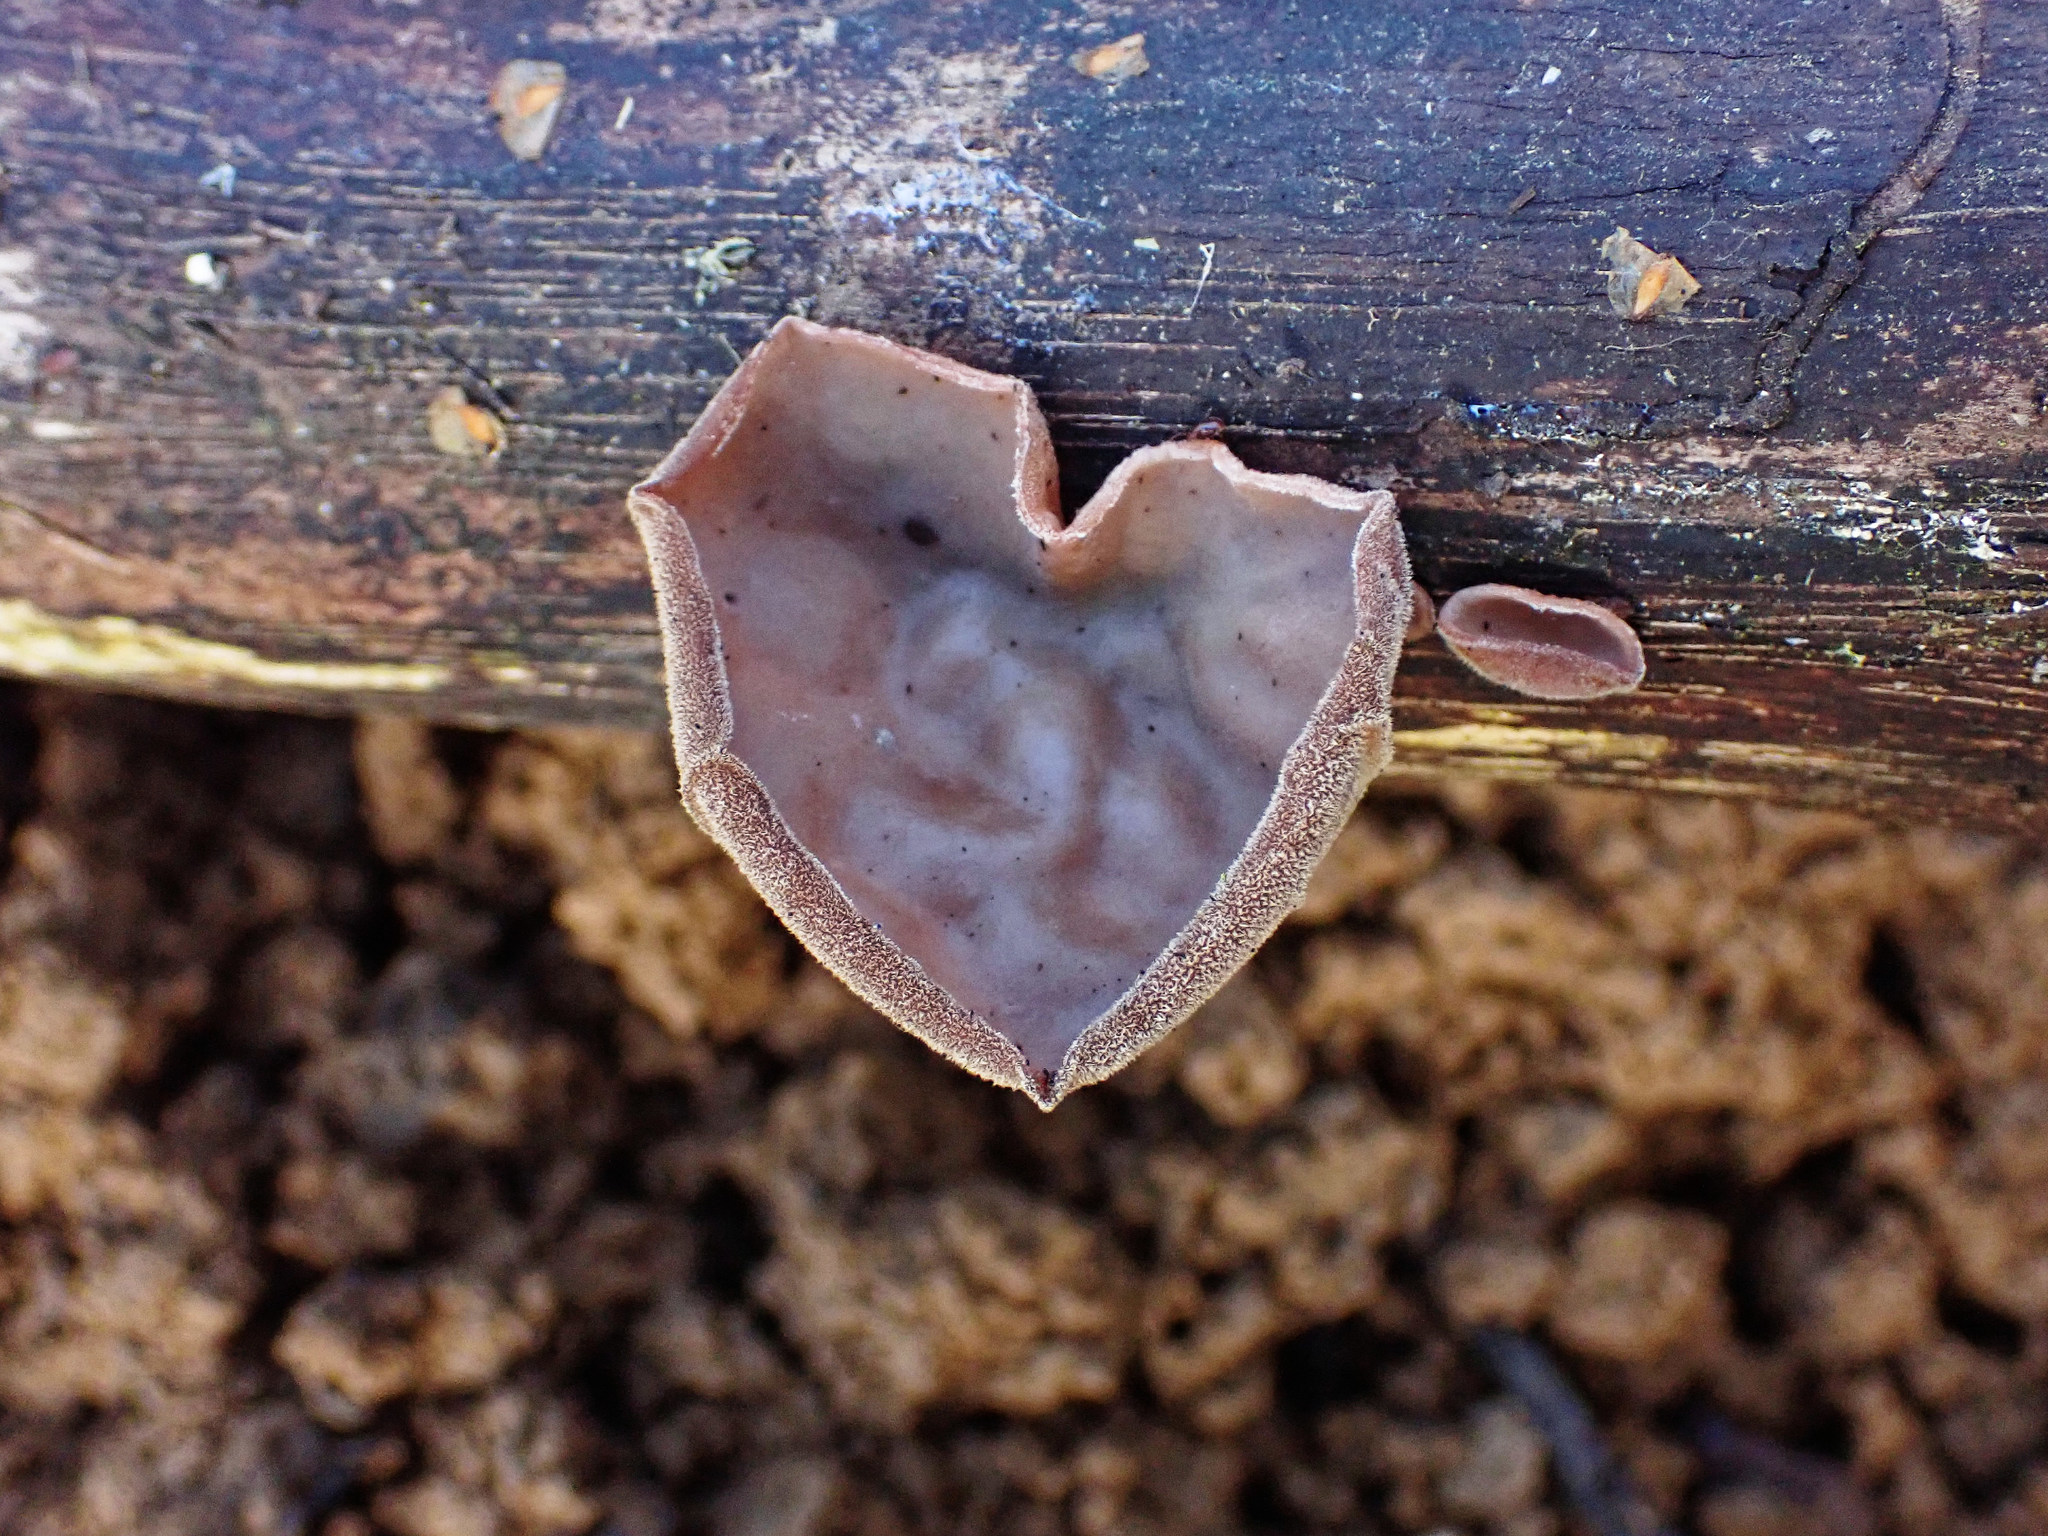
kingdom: Fungi
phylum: Basidiomycota
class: Agaricomycetes
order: Auriculariales
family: Auriculariaceae
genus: Auricularia
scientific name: Auricularia auricula-judae
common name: Jelly ear
